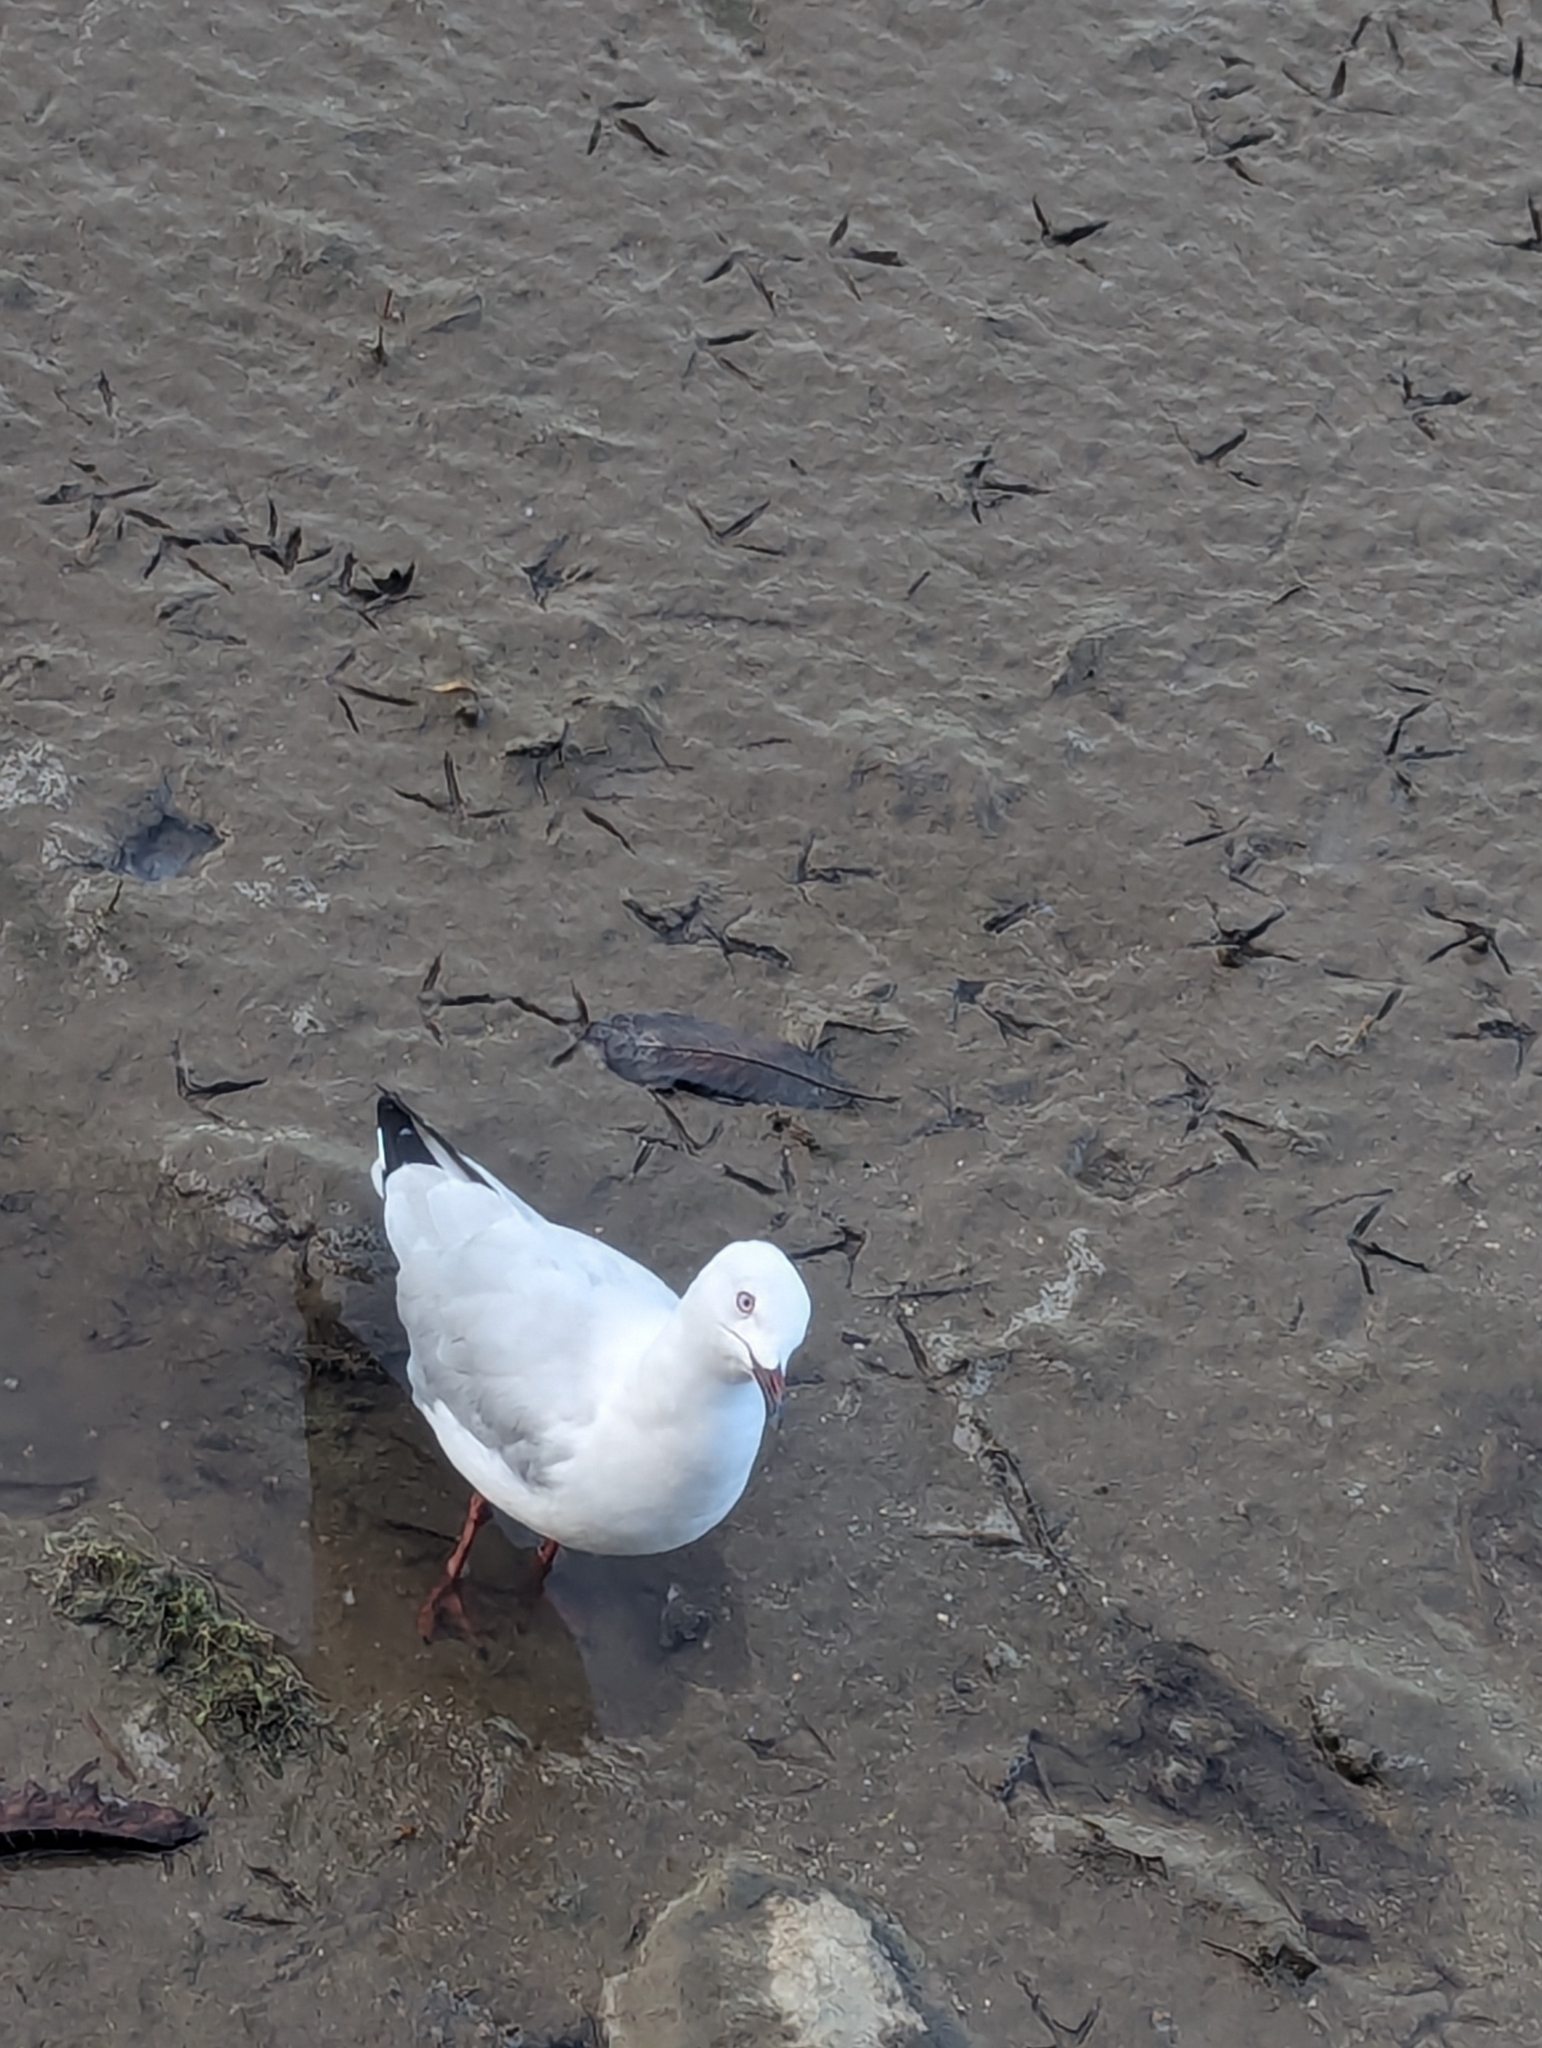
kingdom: Animalia
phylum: Chordata
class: Aves
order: Charadriiformes
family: Laridae
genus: Chroicocephalus
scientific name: Chroicocephalus novaehollandiae
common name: Silver gull
